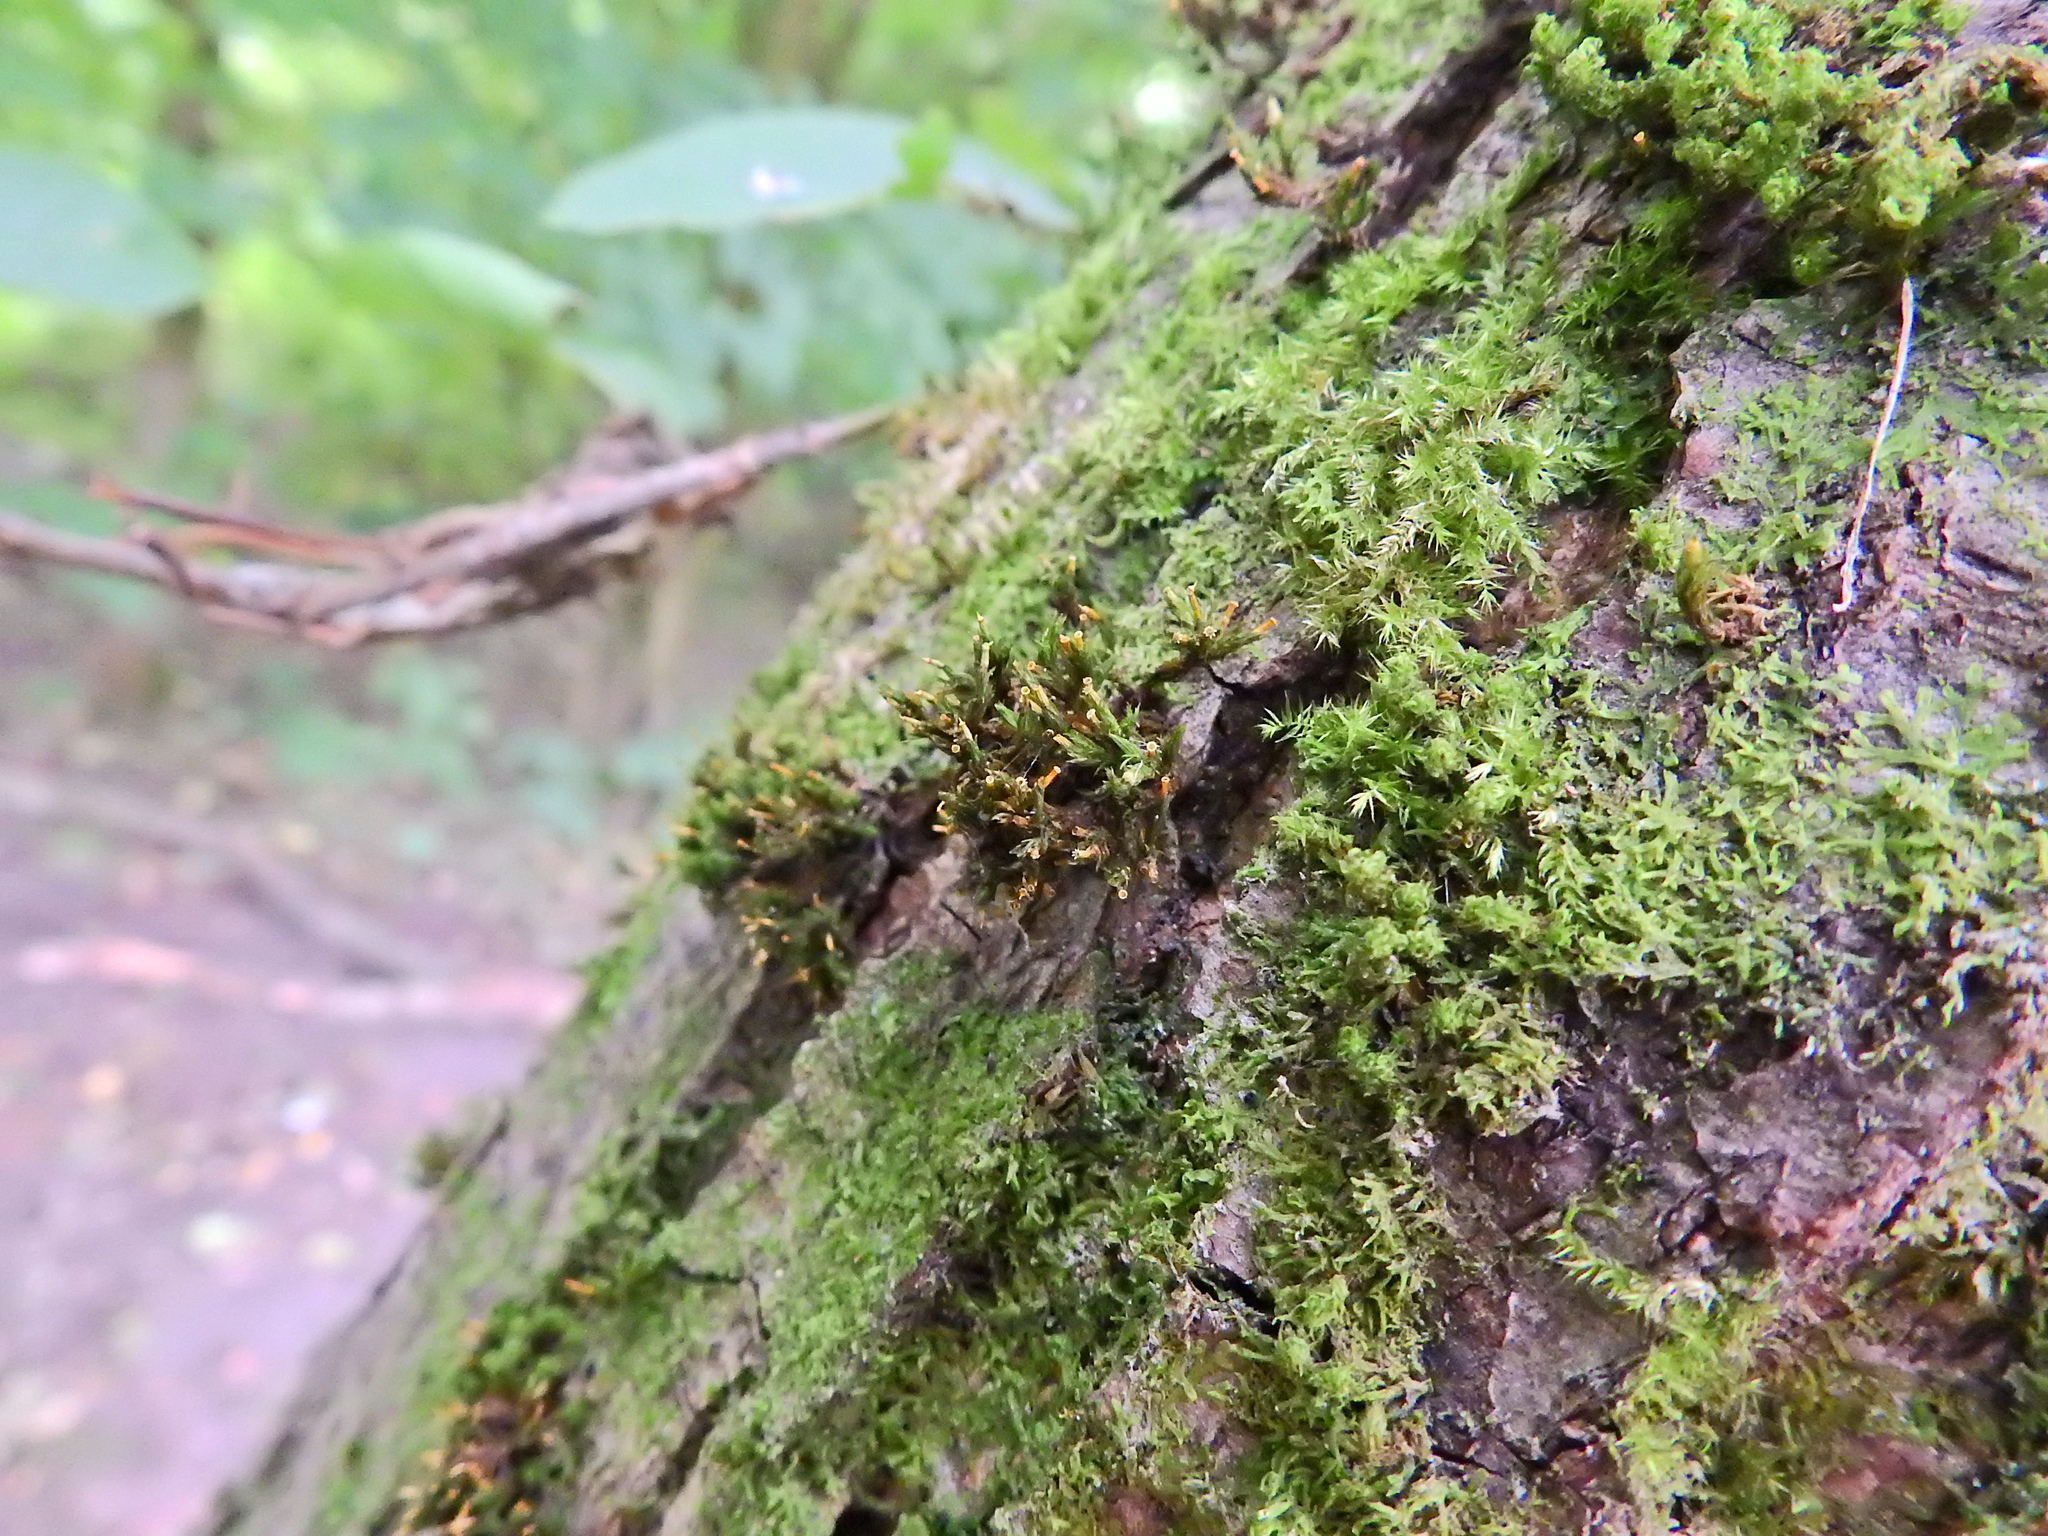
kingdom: Plantae
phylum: Bryophyta
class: Bryopsida
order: Orthotrichales
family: Orthotrichaceae
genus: Lewinskya
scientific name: Lewinskya affinis
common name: Wood bristle-moss
